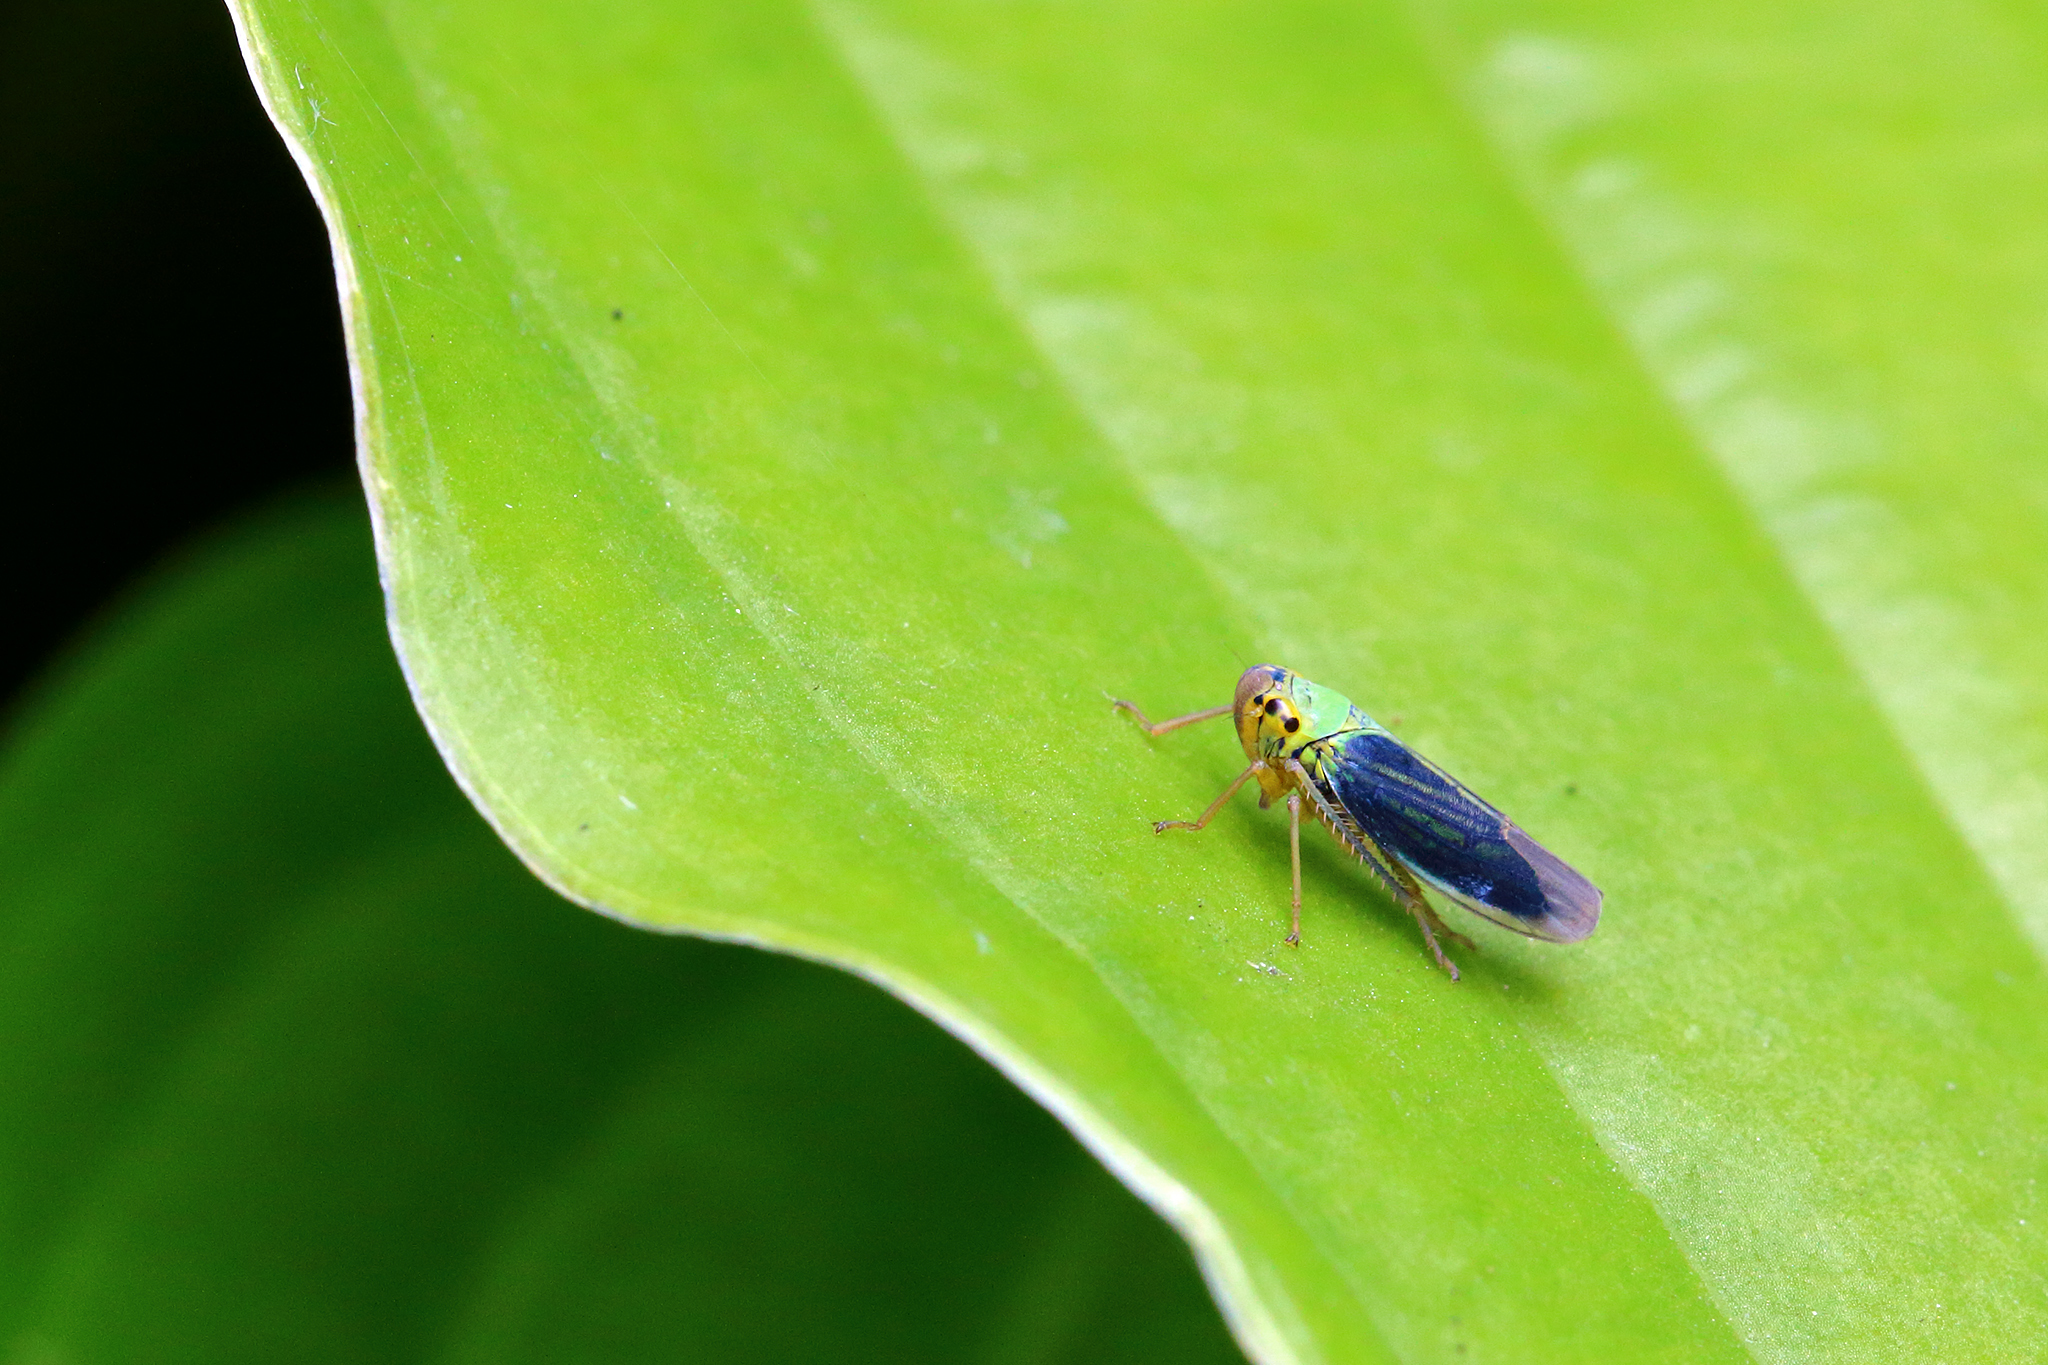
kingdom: Animalia
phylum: Arthropoda
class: Insecta
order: Hemiptera
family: Cicadellidae
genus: Cicadella
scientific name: Cicadella viridis
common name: Leafhopper
